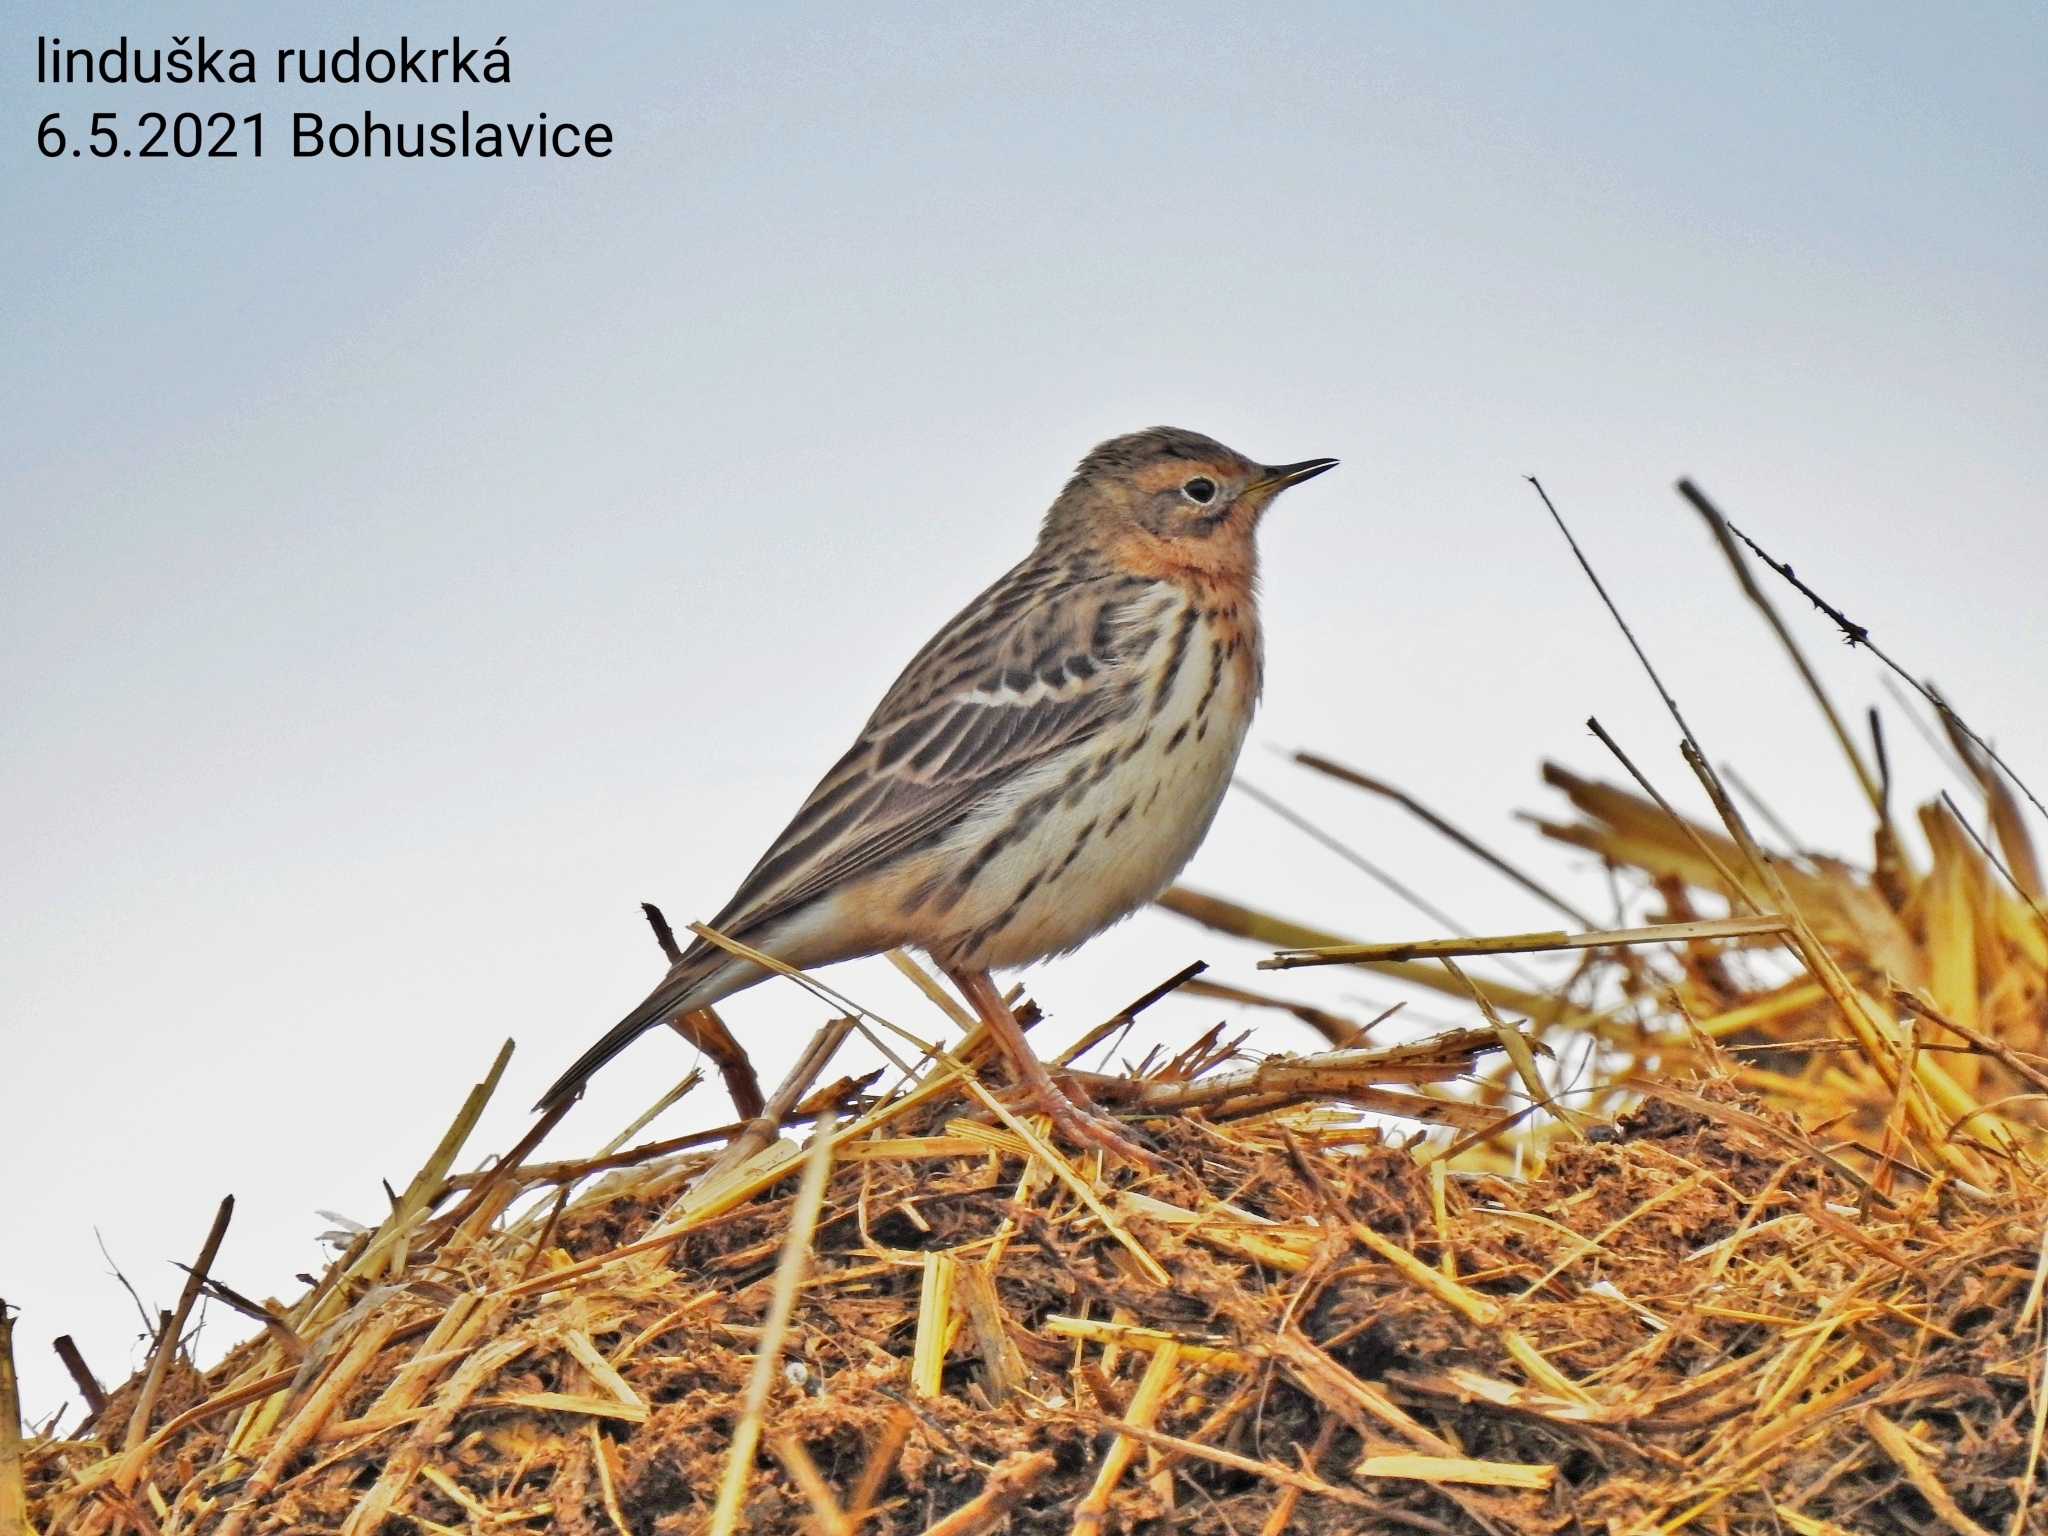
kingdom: Animalia
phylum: Chordata
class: Aves
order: Passeriformes
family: Motacillidae
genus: Anthus
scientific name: Anthus cervinus
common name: Red-throated pipit
